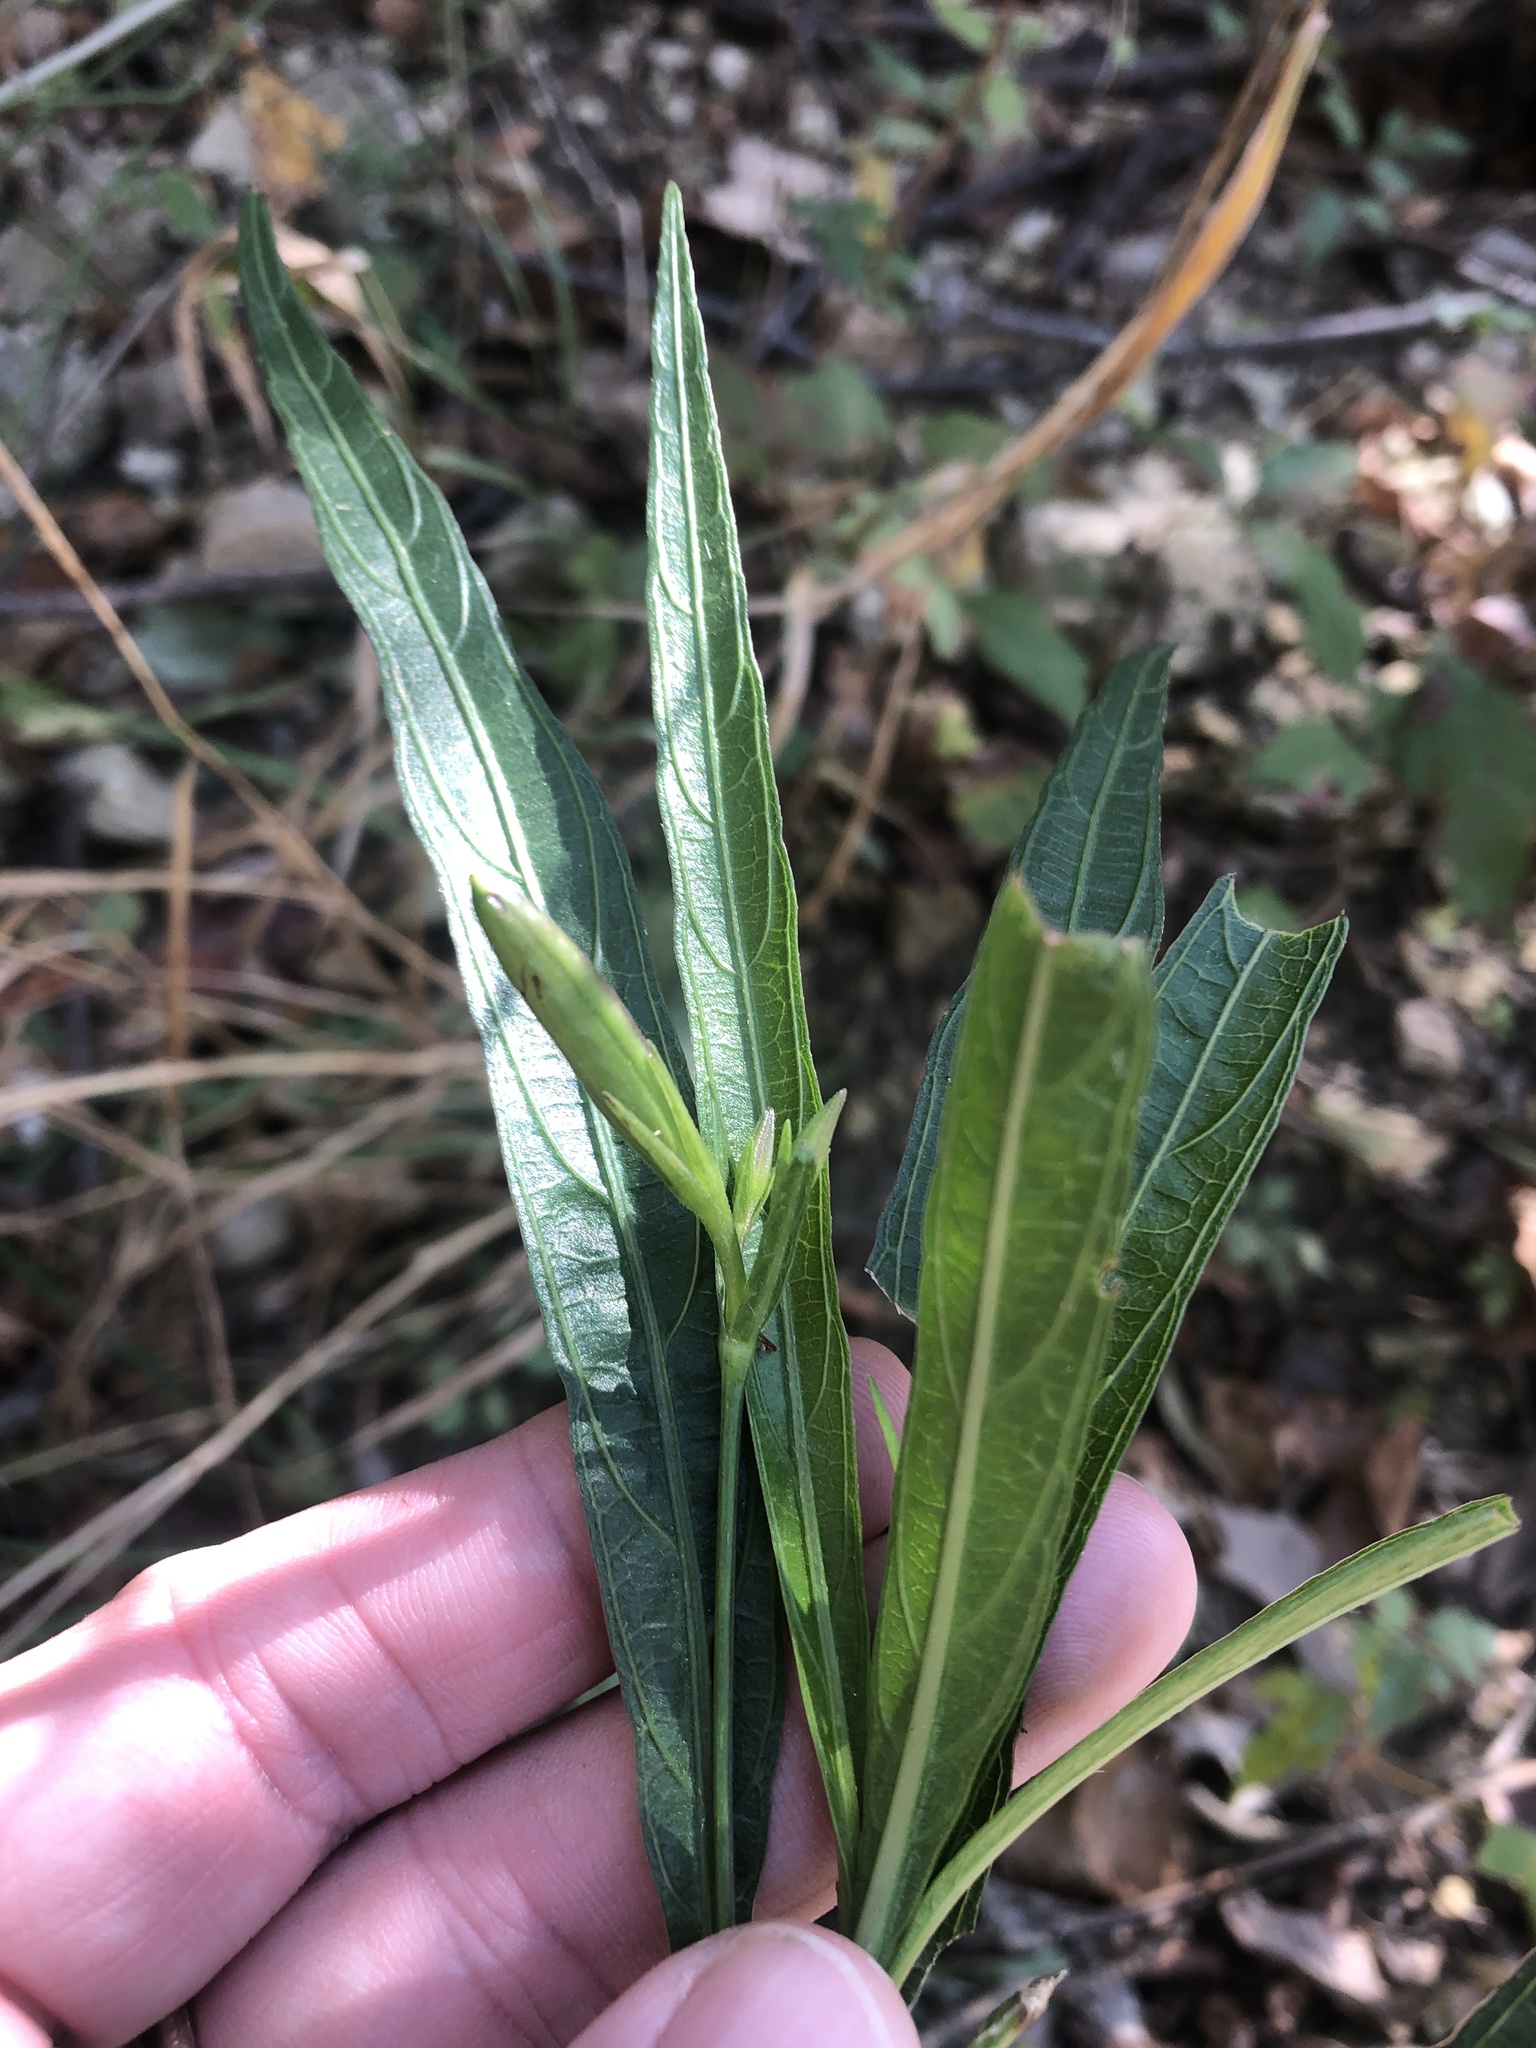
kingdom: Plantae
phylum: Tracheophyta
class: Magnoliopsida
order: Lamiales
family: Acanthaceae
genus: Ruellia
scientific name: Ruellia simplex
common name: Softseed wild petunia
